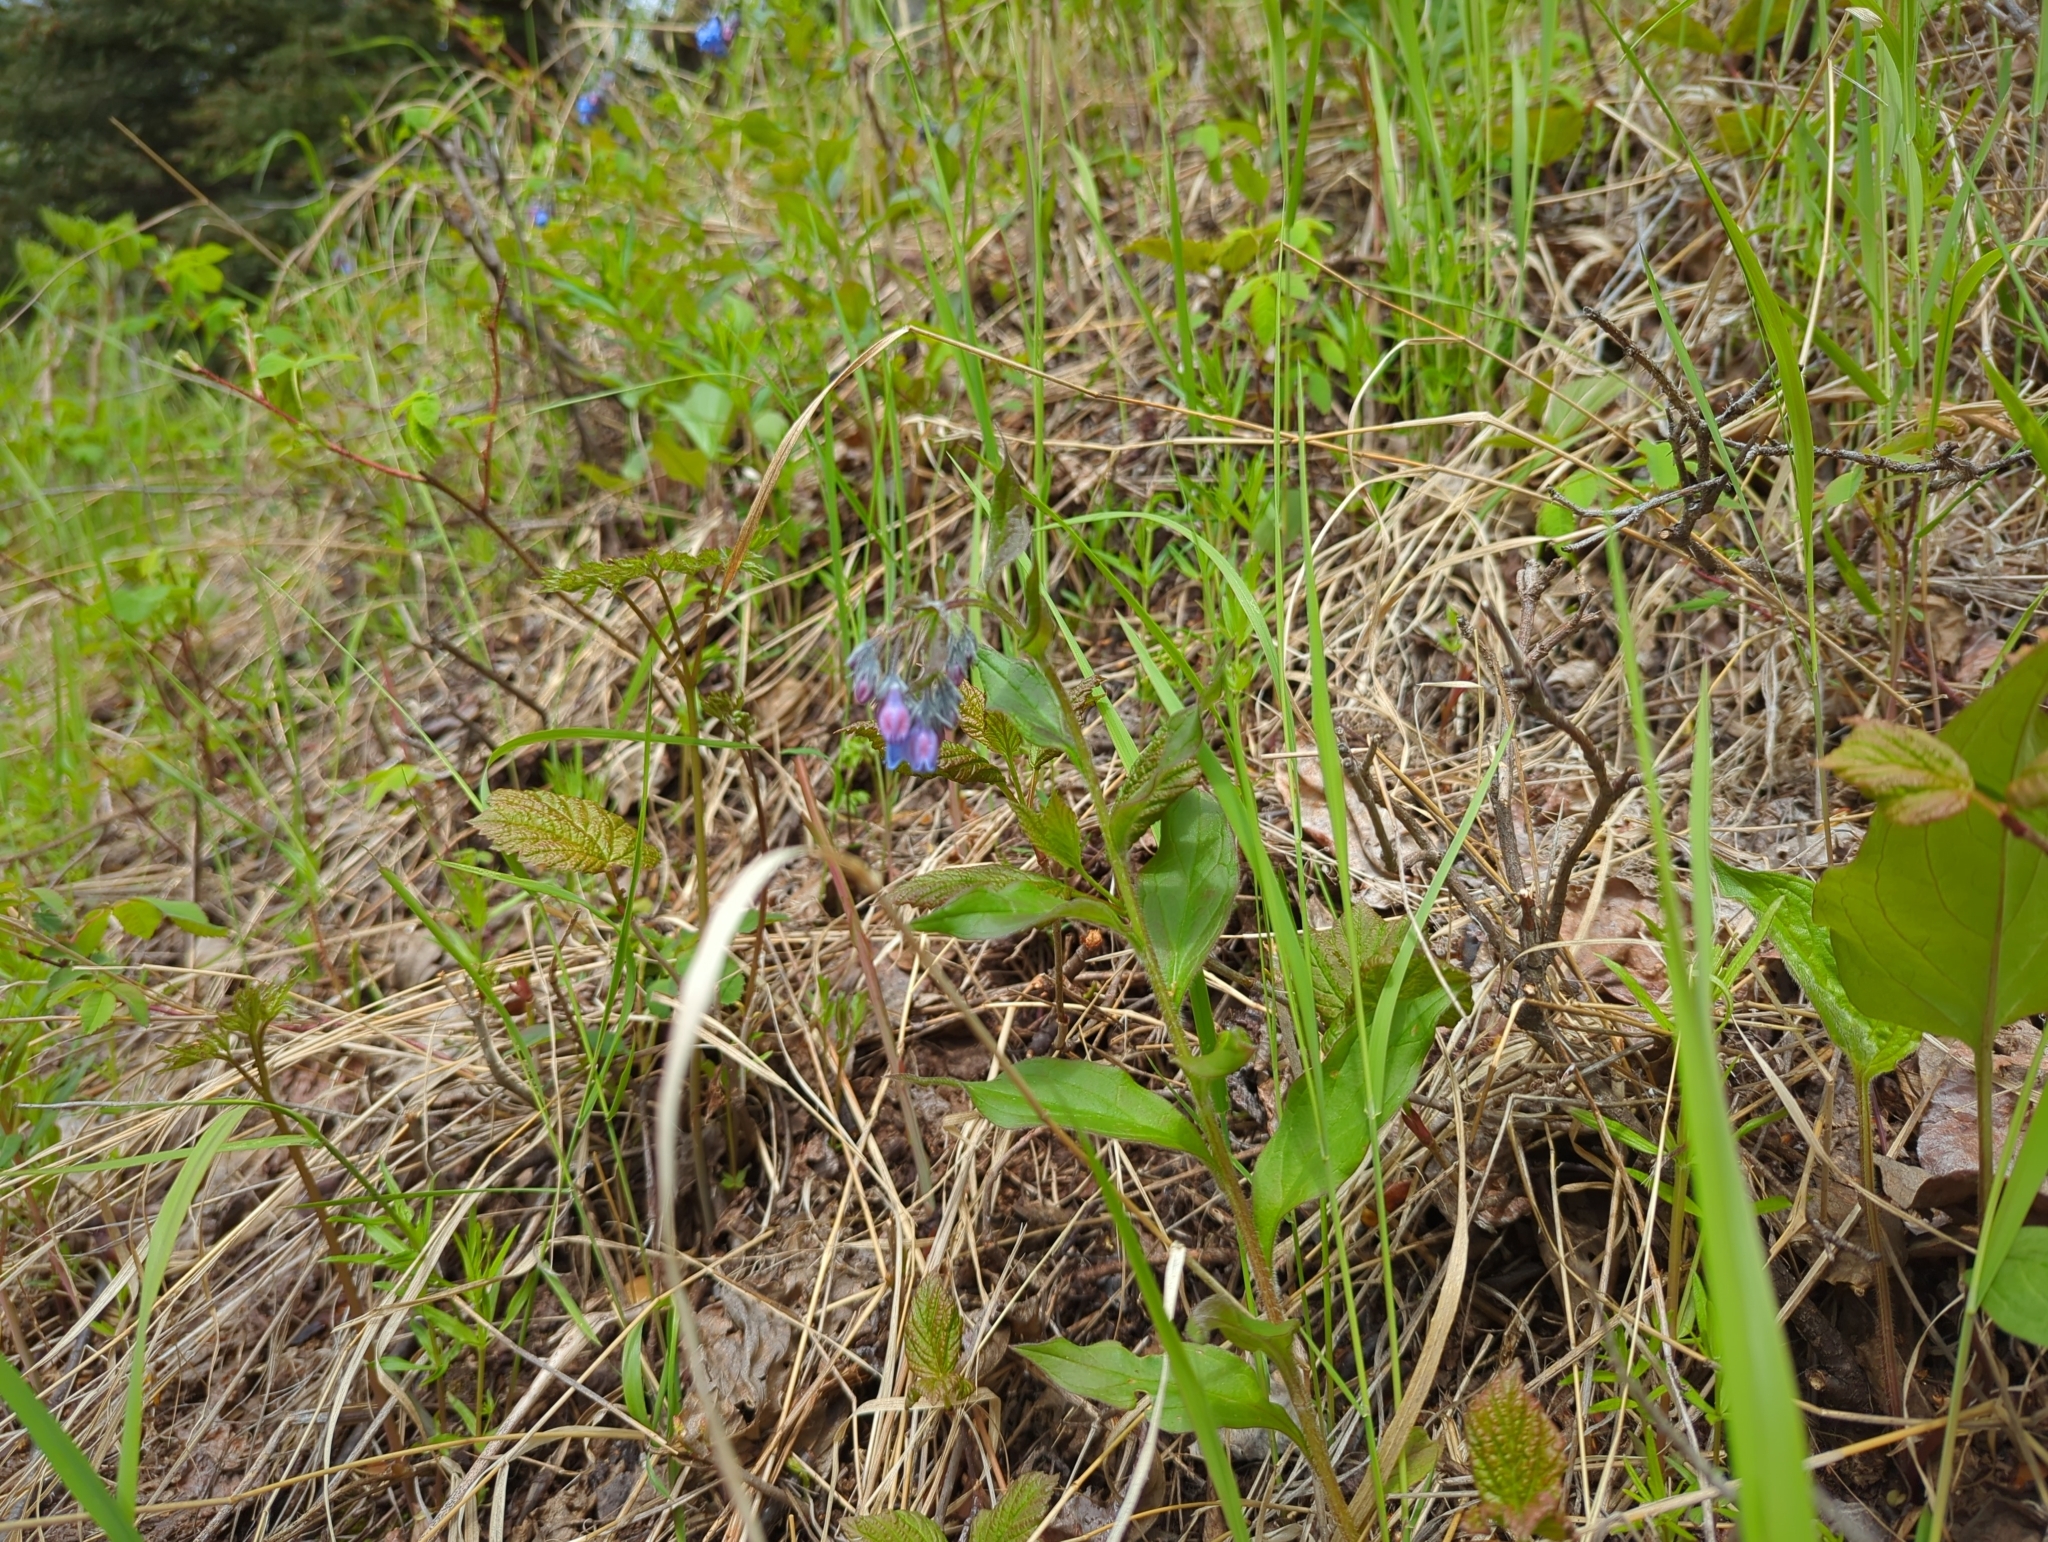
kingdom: Plantae
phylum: Tracheophyta
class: Magnoliopsida
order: Boraginales
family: Boraginaceae
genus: Mertensia
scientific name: Mertensia paniculata
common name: Panicled bluebells
